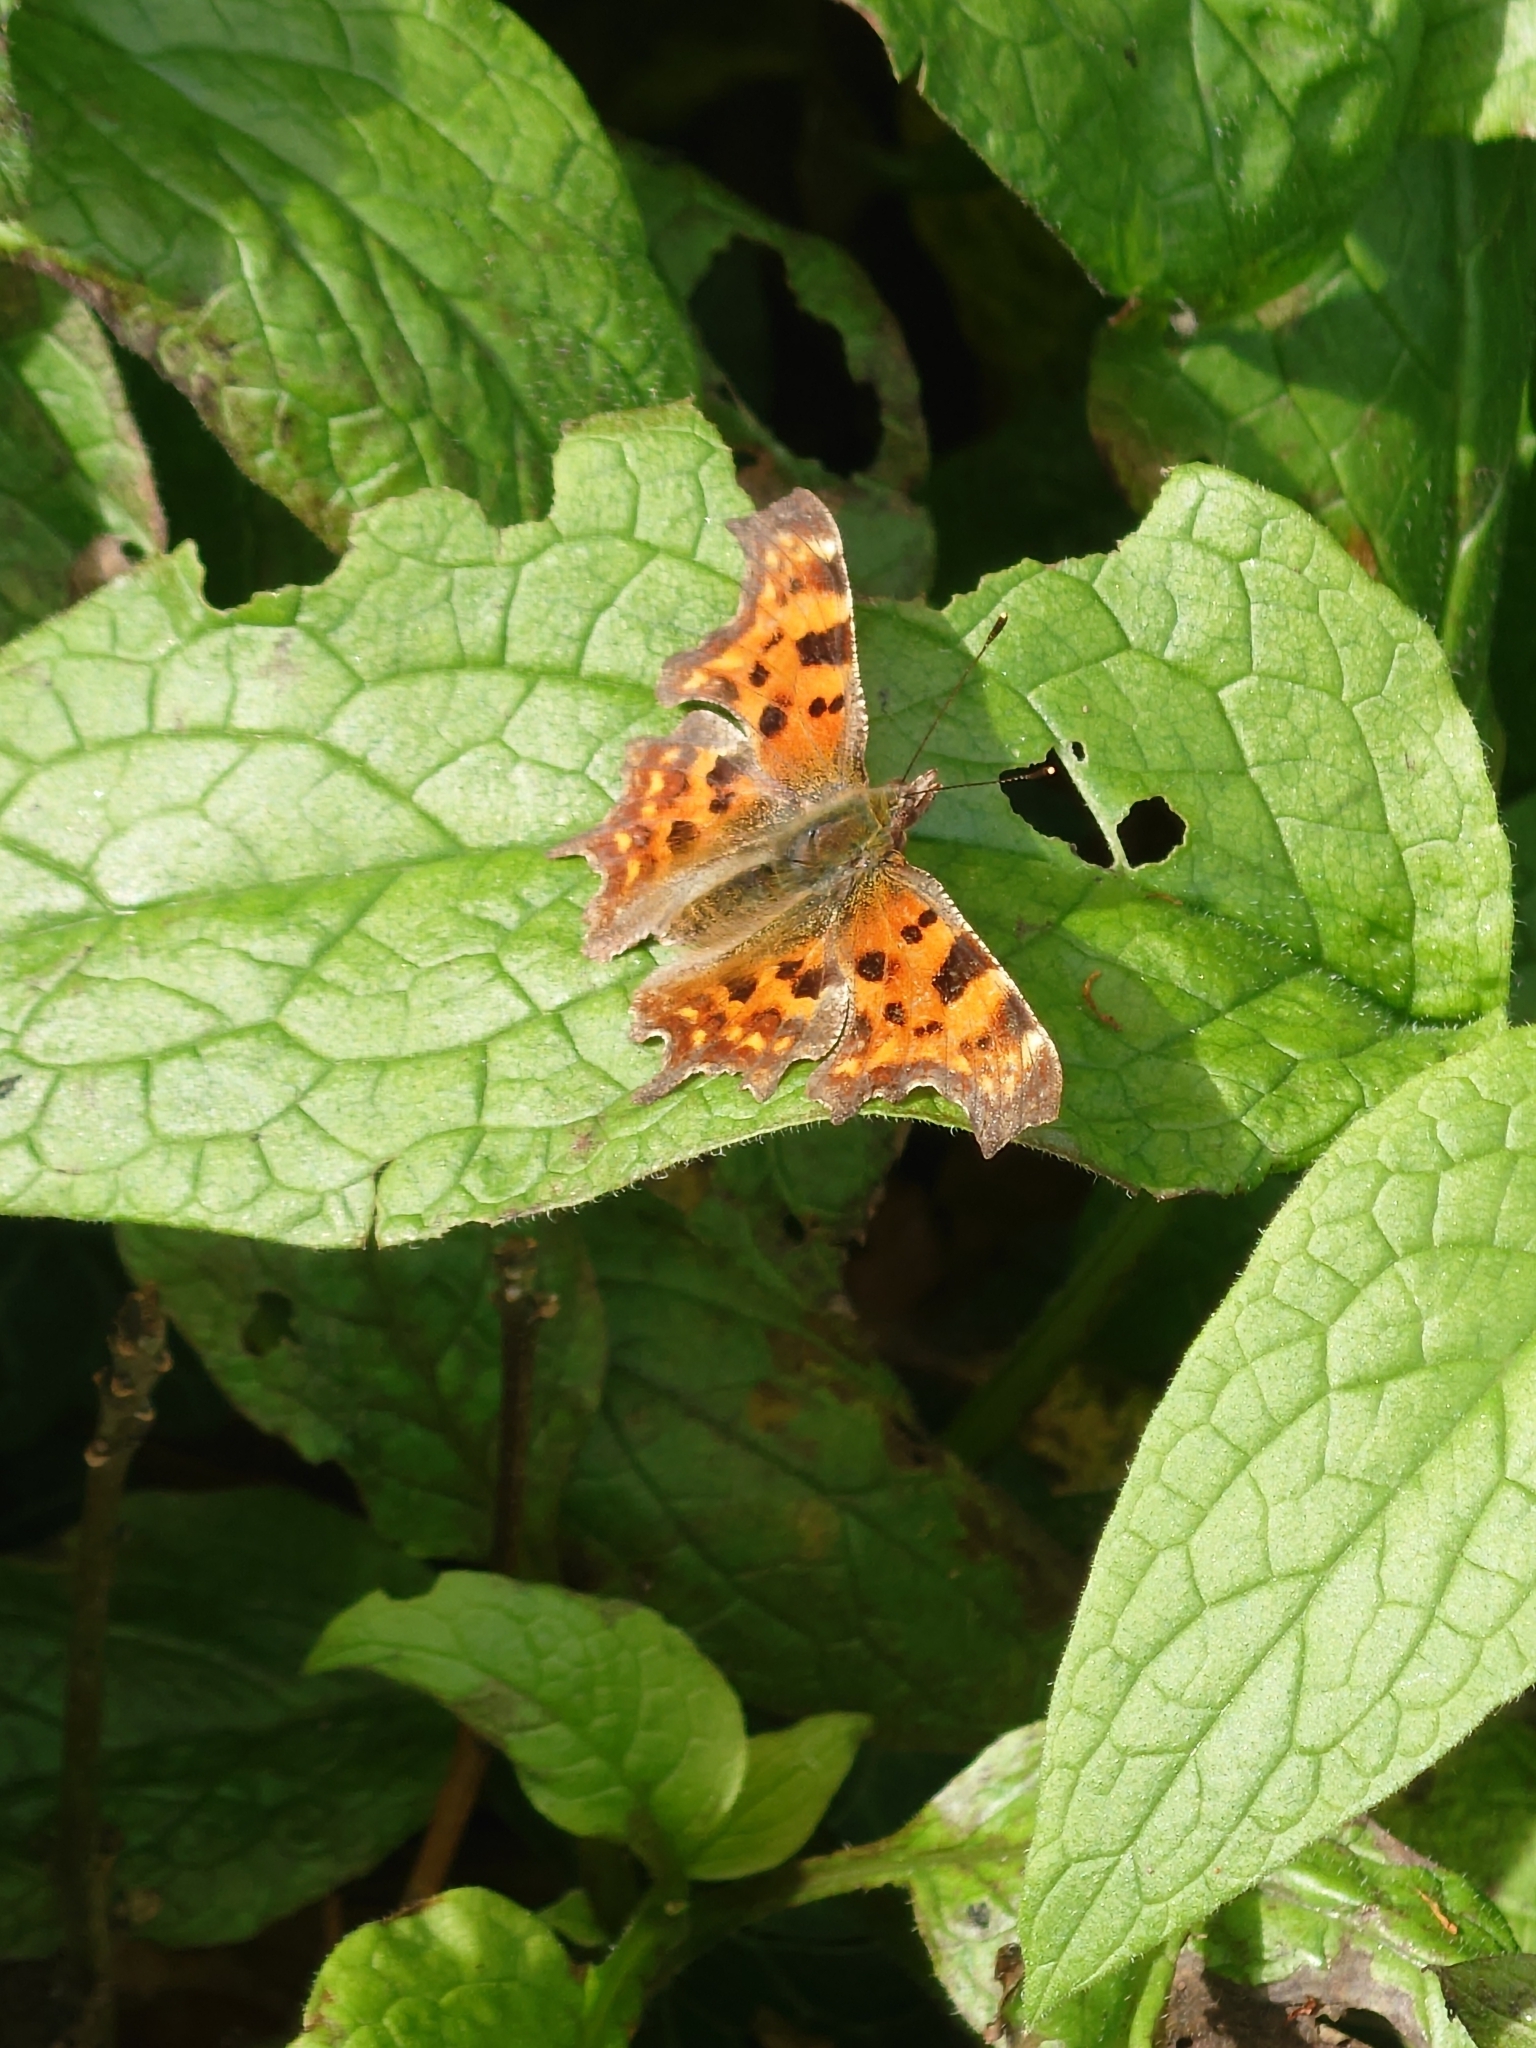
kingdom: Animalia
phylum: Arthropoda
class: Insecta
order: Lepidoptera
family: Nymphalidae
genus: Polygonia
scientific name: Polygonia c-album
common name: Comma
